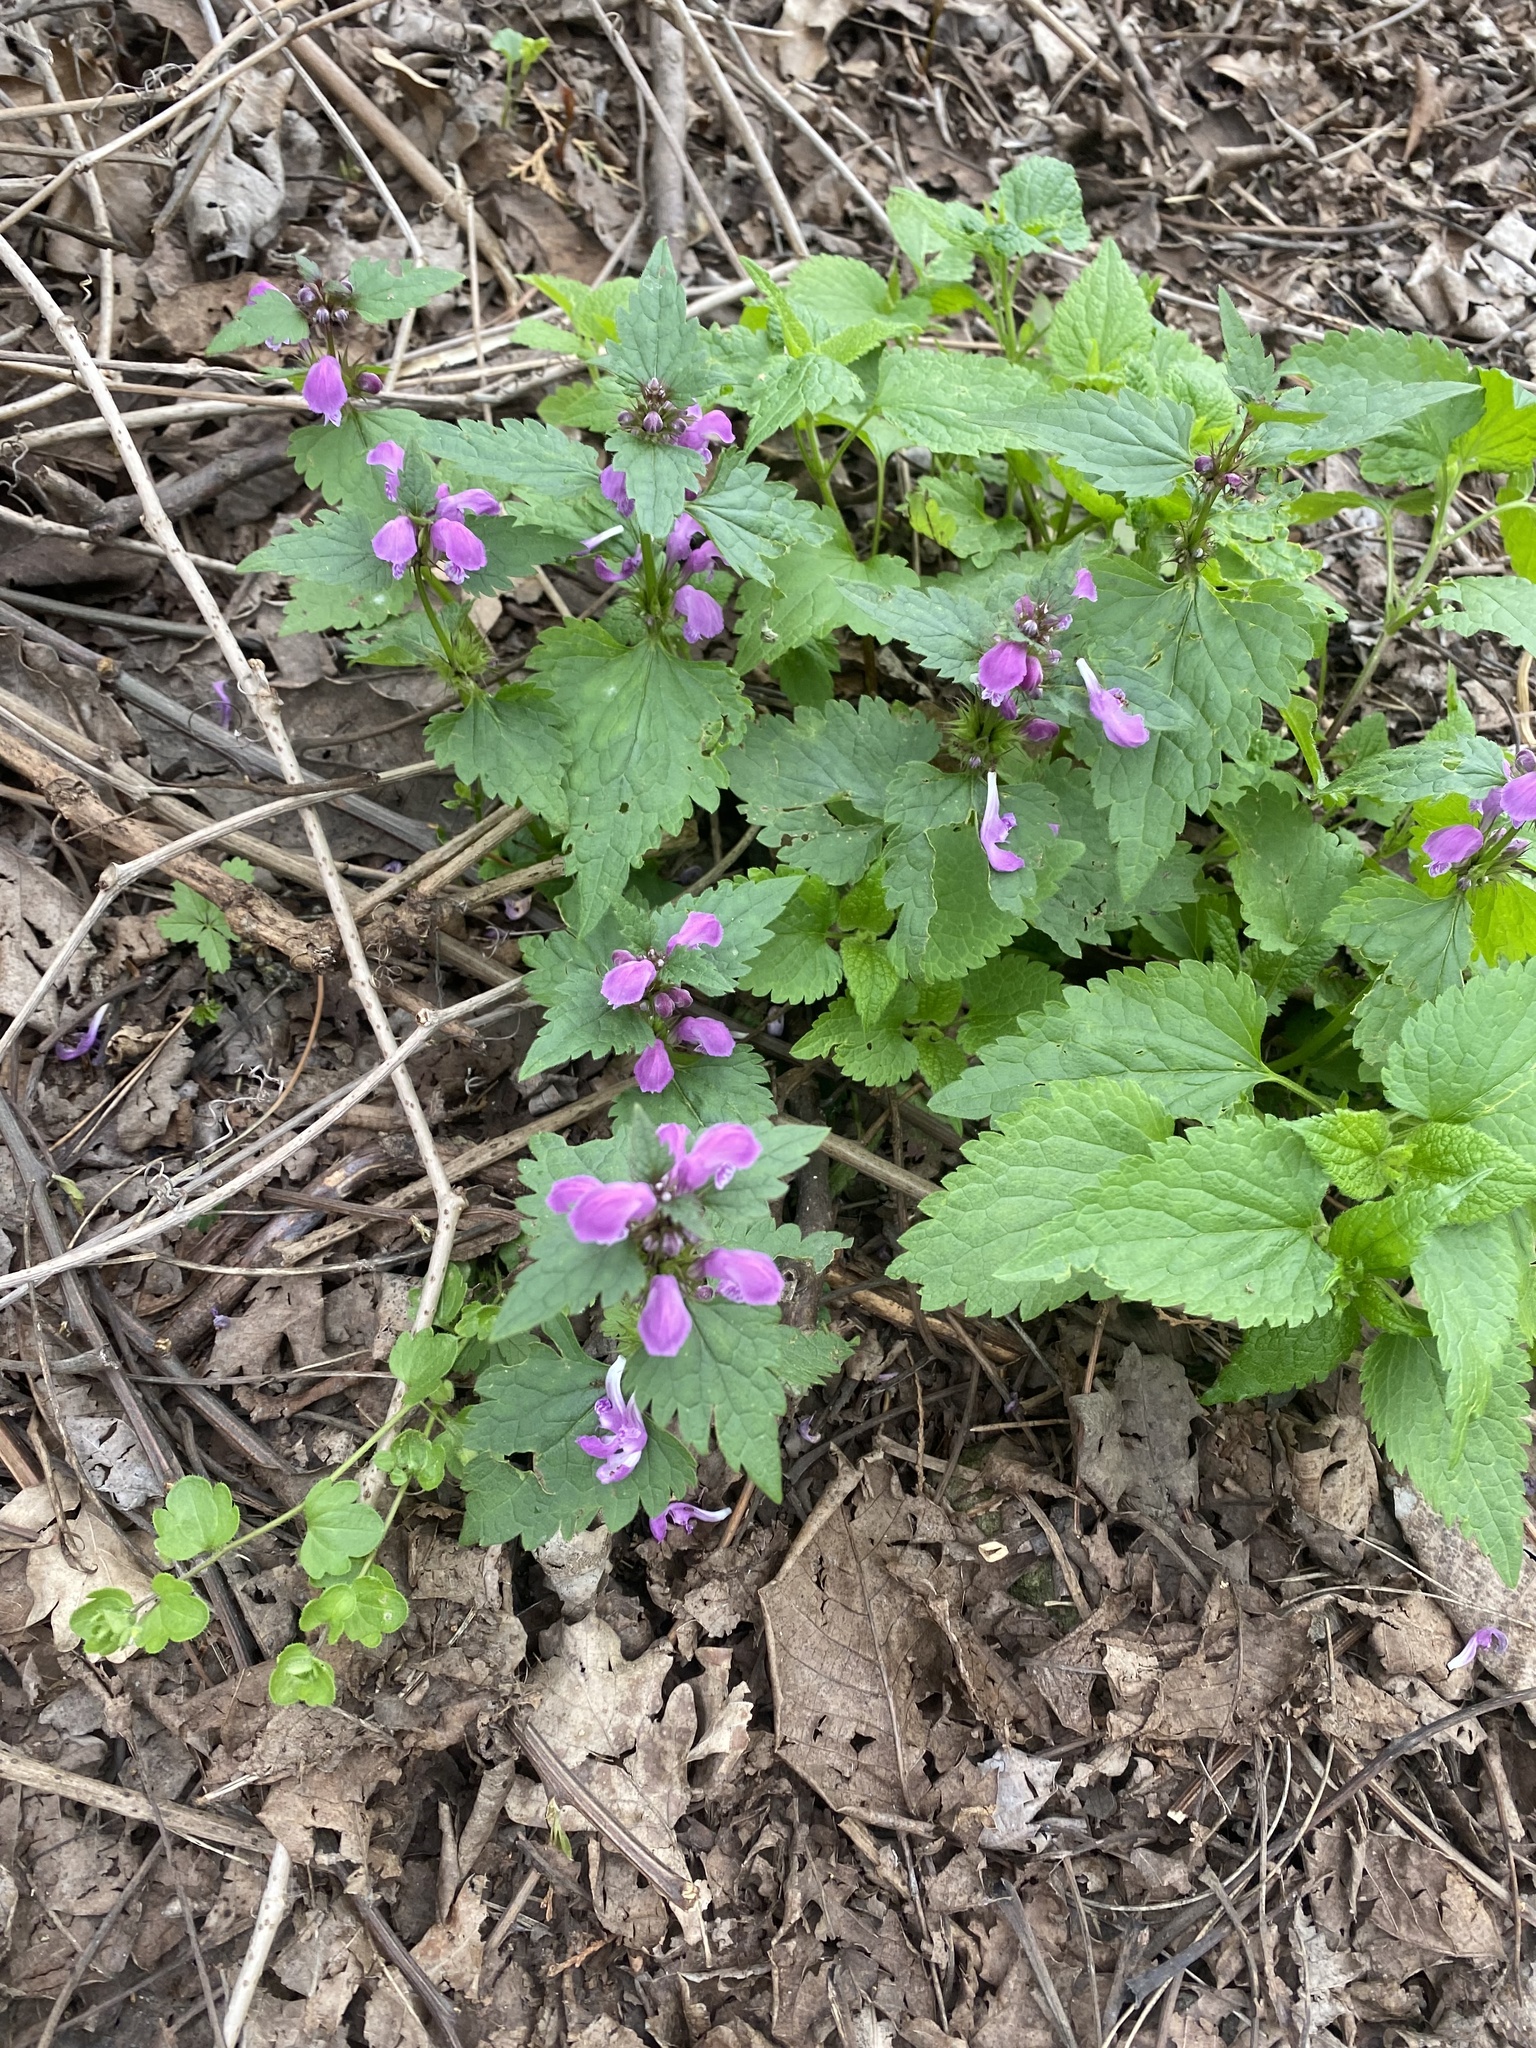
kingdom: Plantae
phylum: Tracheophyta
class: Magnoliopsida
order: Lamiales
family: Lamiaceae
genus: Lamium
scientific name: Lamium maculatum
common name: Spotted dead-nettle
